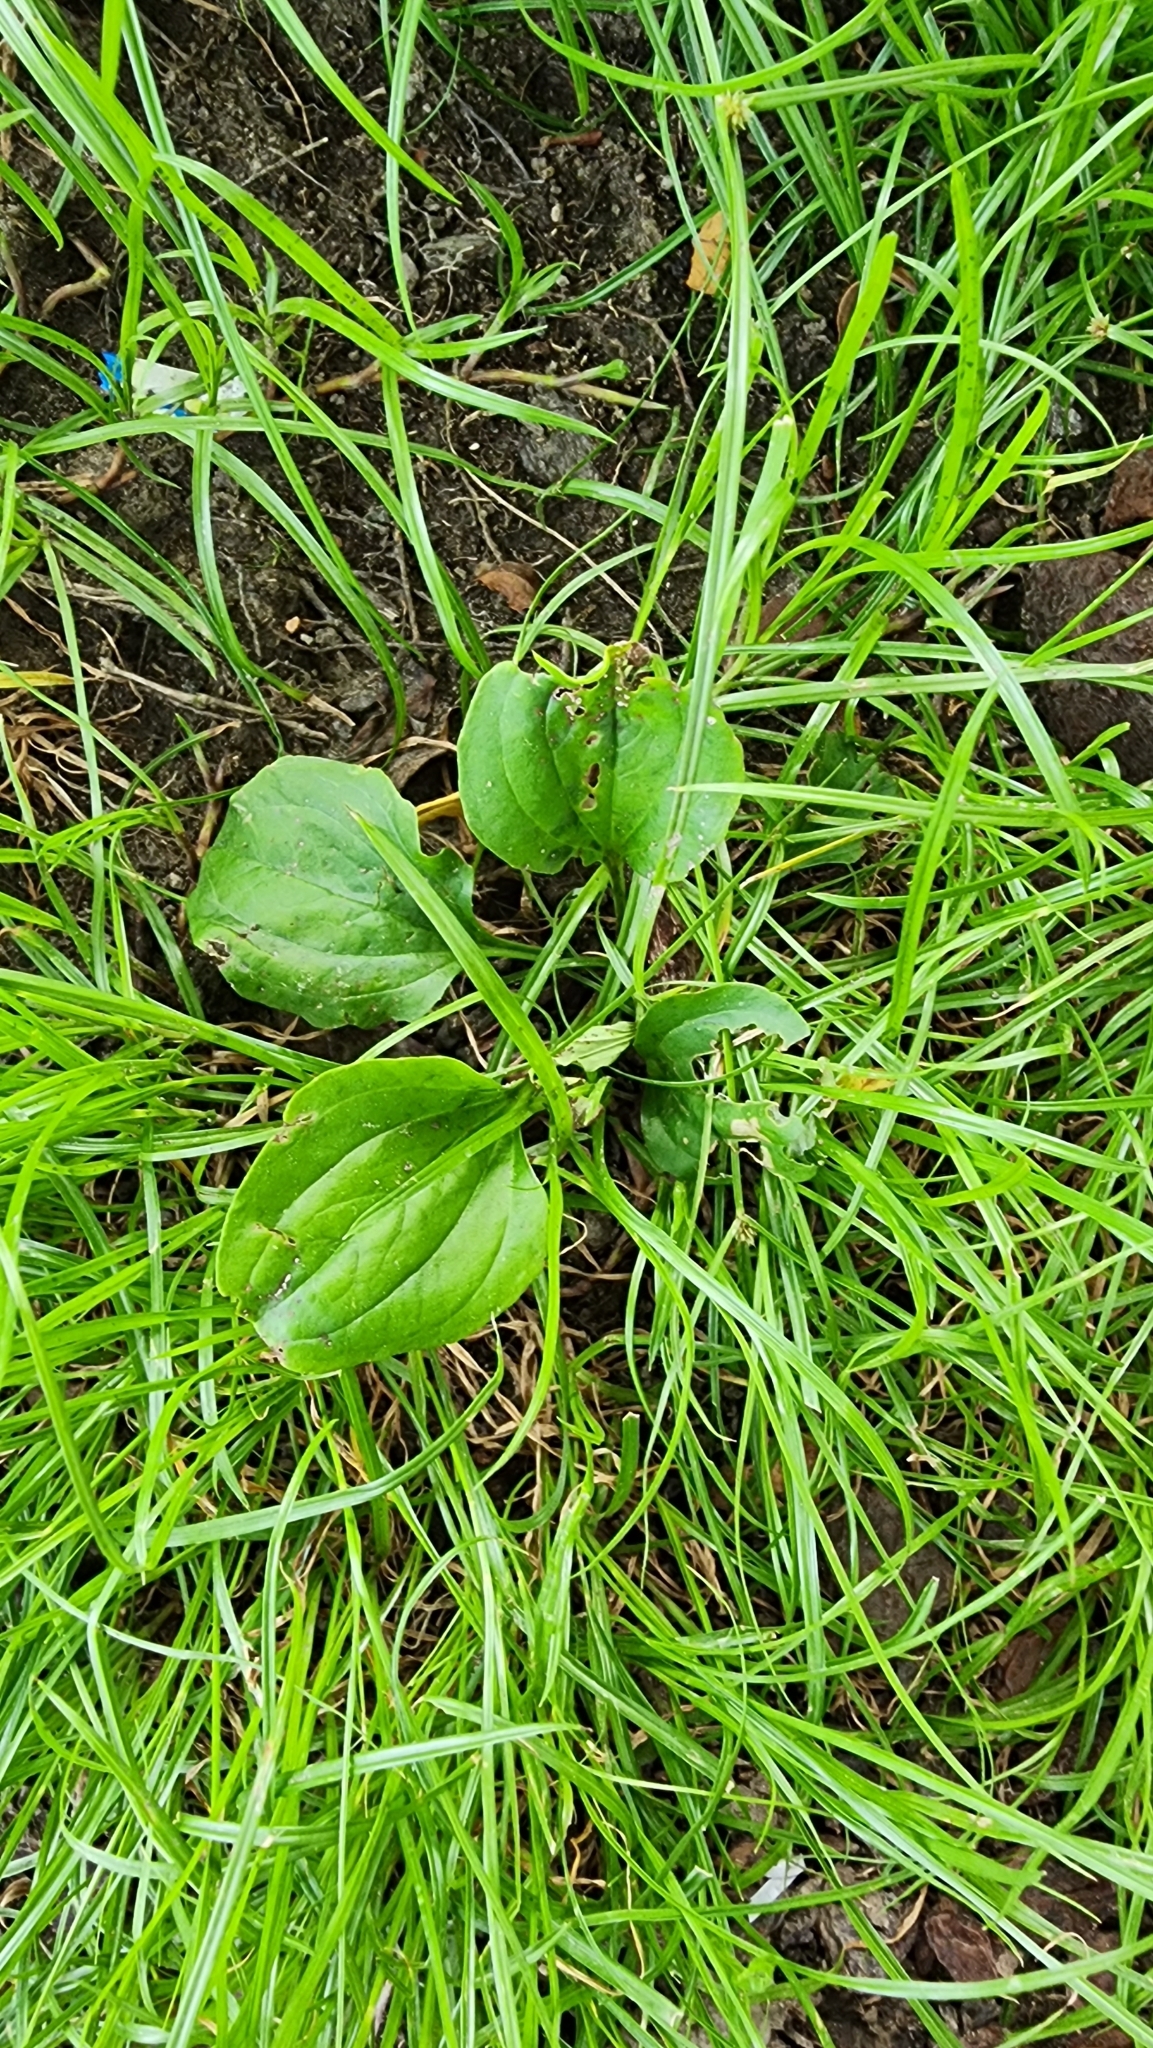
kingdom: Plantae
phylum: Tracheophyta
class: Magnoliopsida
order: Lamiales
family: Plantaginaceae
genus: Plantago
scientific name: Plantago asiatica
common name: Psyllium
